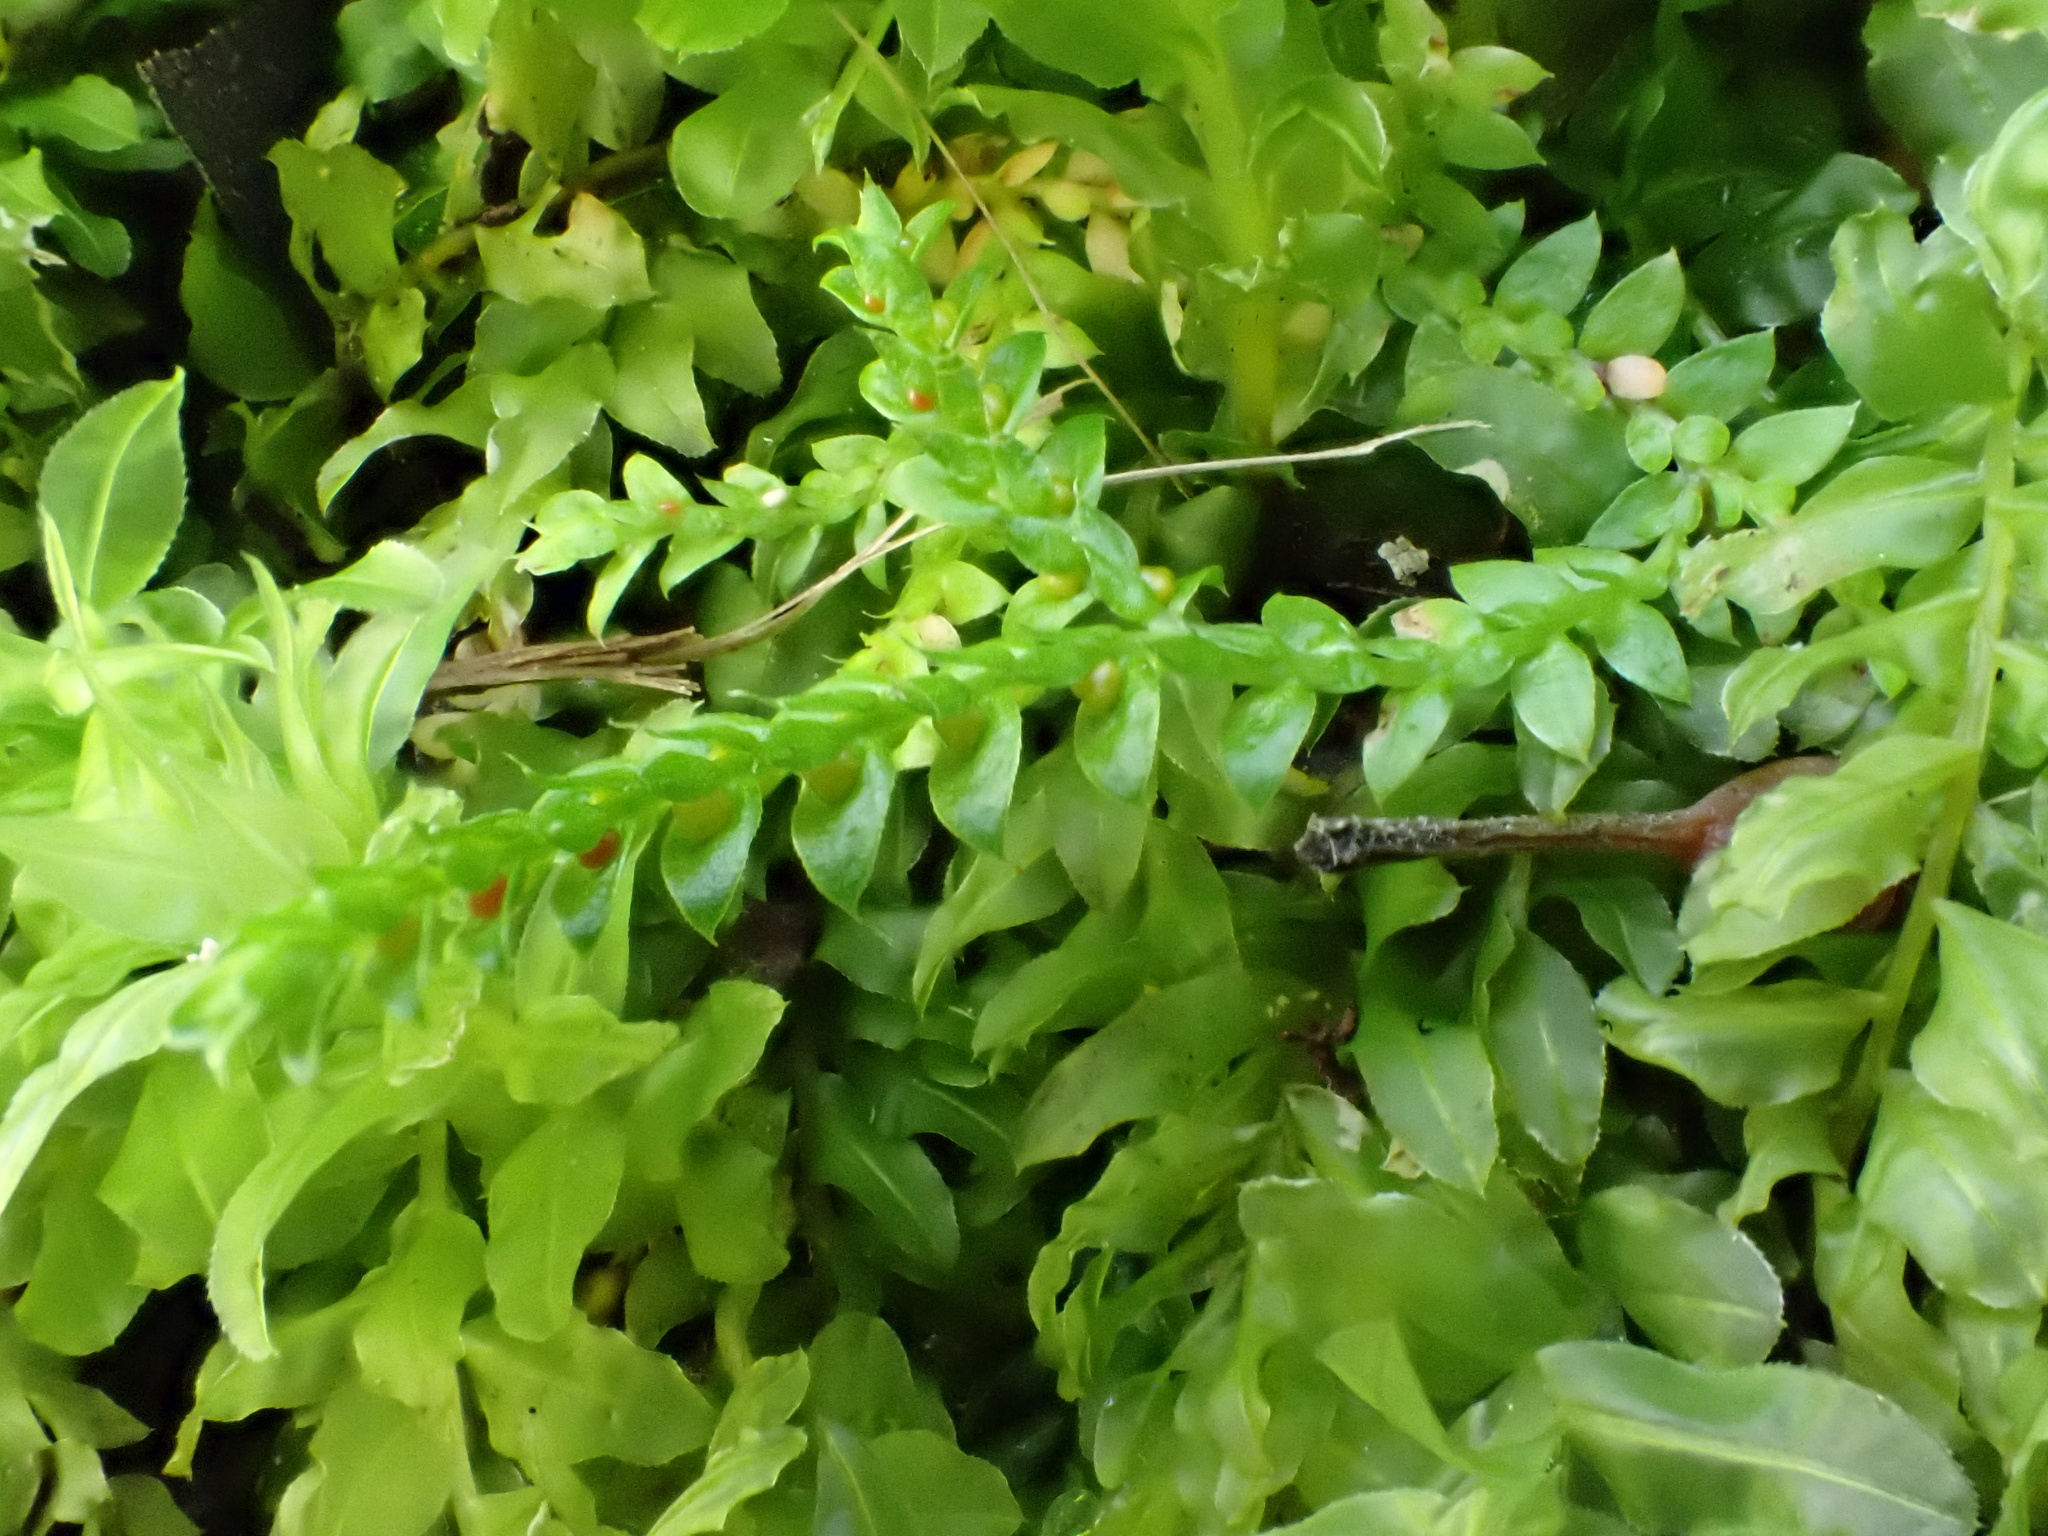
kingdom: Plantae
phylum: Tracheophyta
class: Lycopodiopsida
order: Selaginellales
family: Selaginellaceae
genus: Selaginella
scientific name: Selaginella denticulata
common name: Toothed-leaved clubmoss
